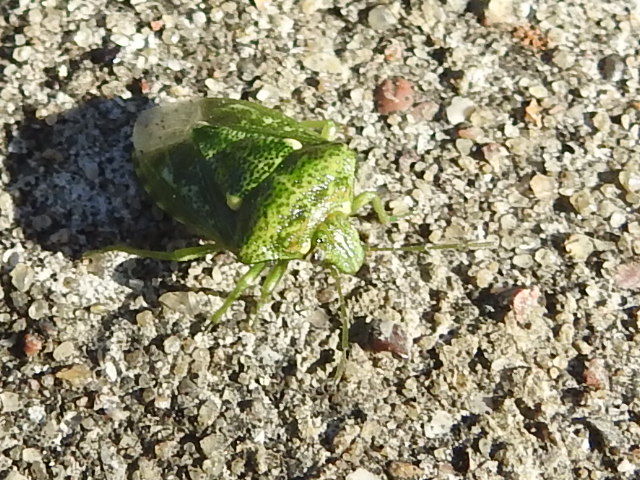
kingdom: Animalia
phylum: Arthropoda
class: Insecta
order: Hemiptera
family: Pentatomidae
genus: Banasa
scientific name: Banasa euchlora
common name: Cedar berry bug
